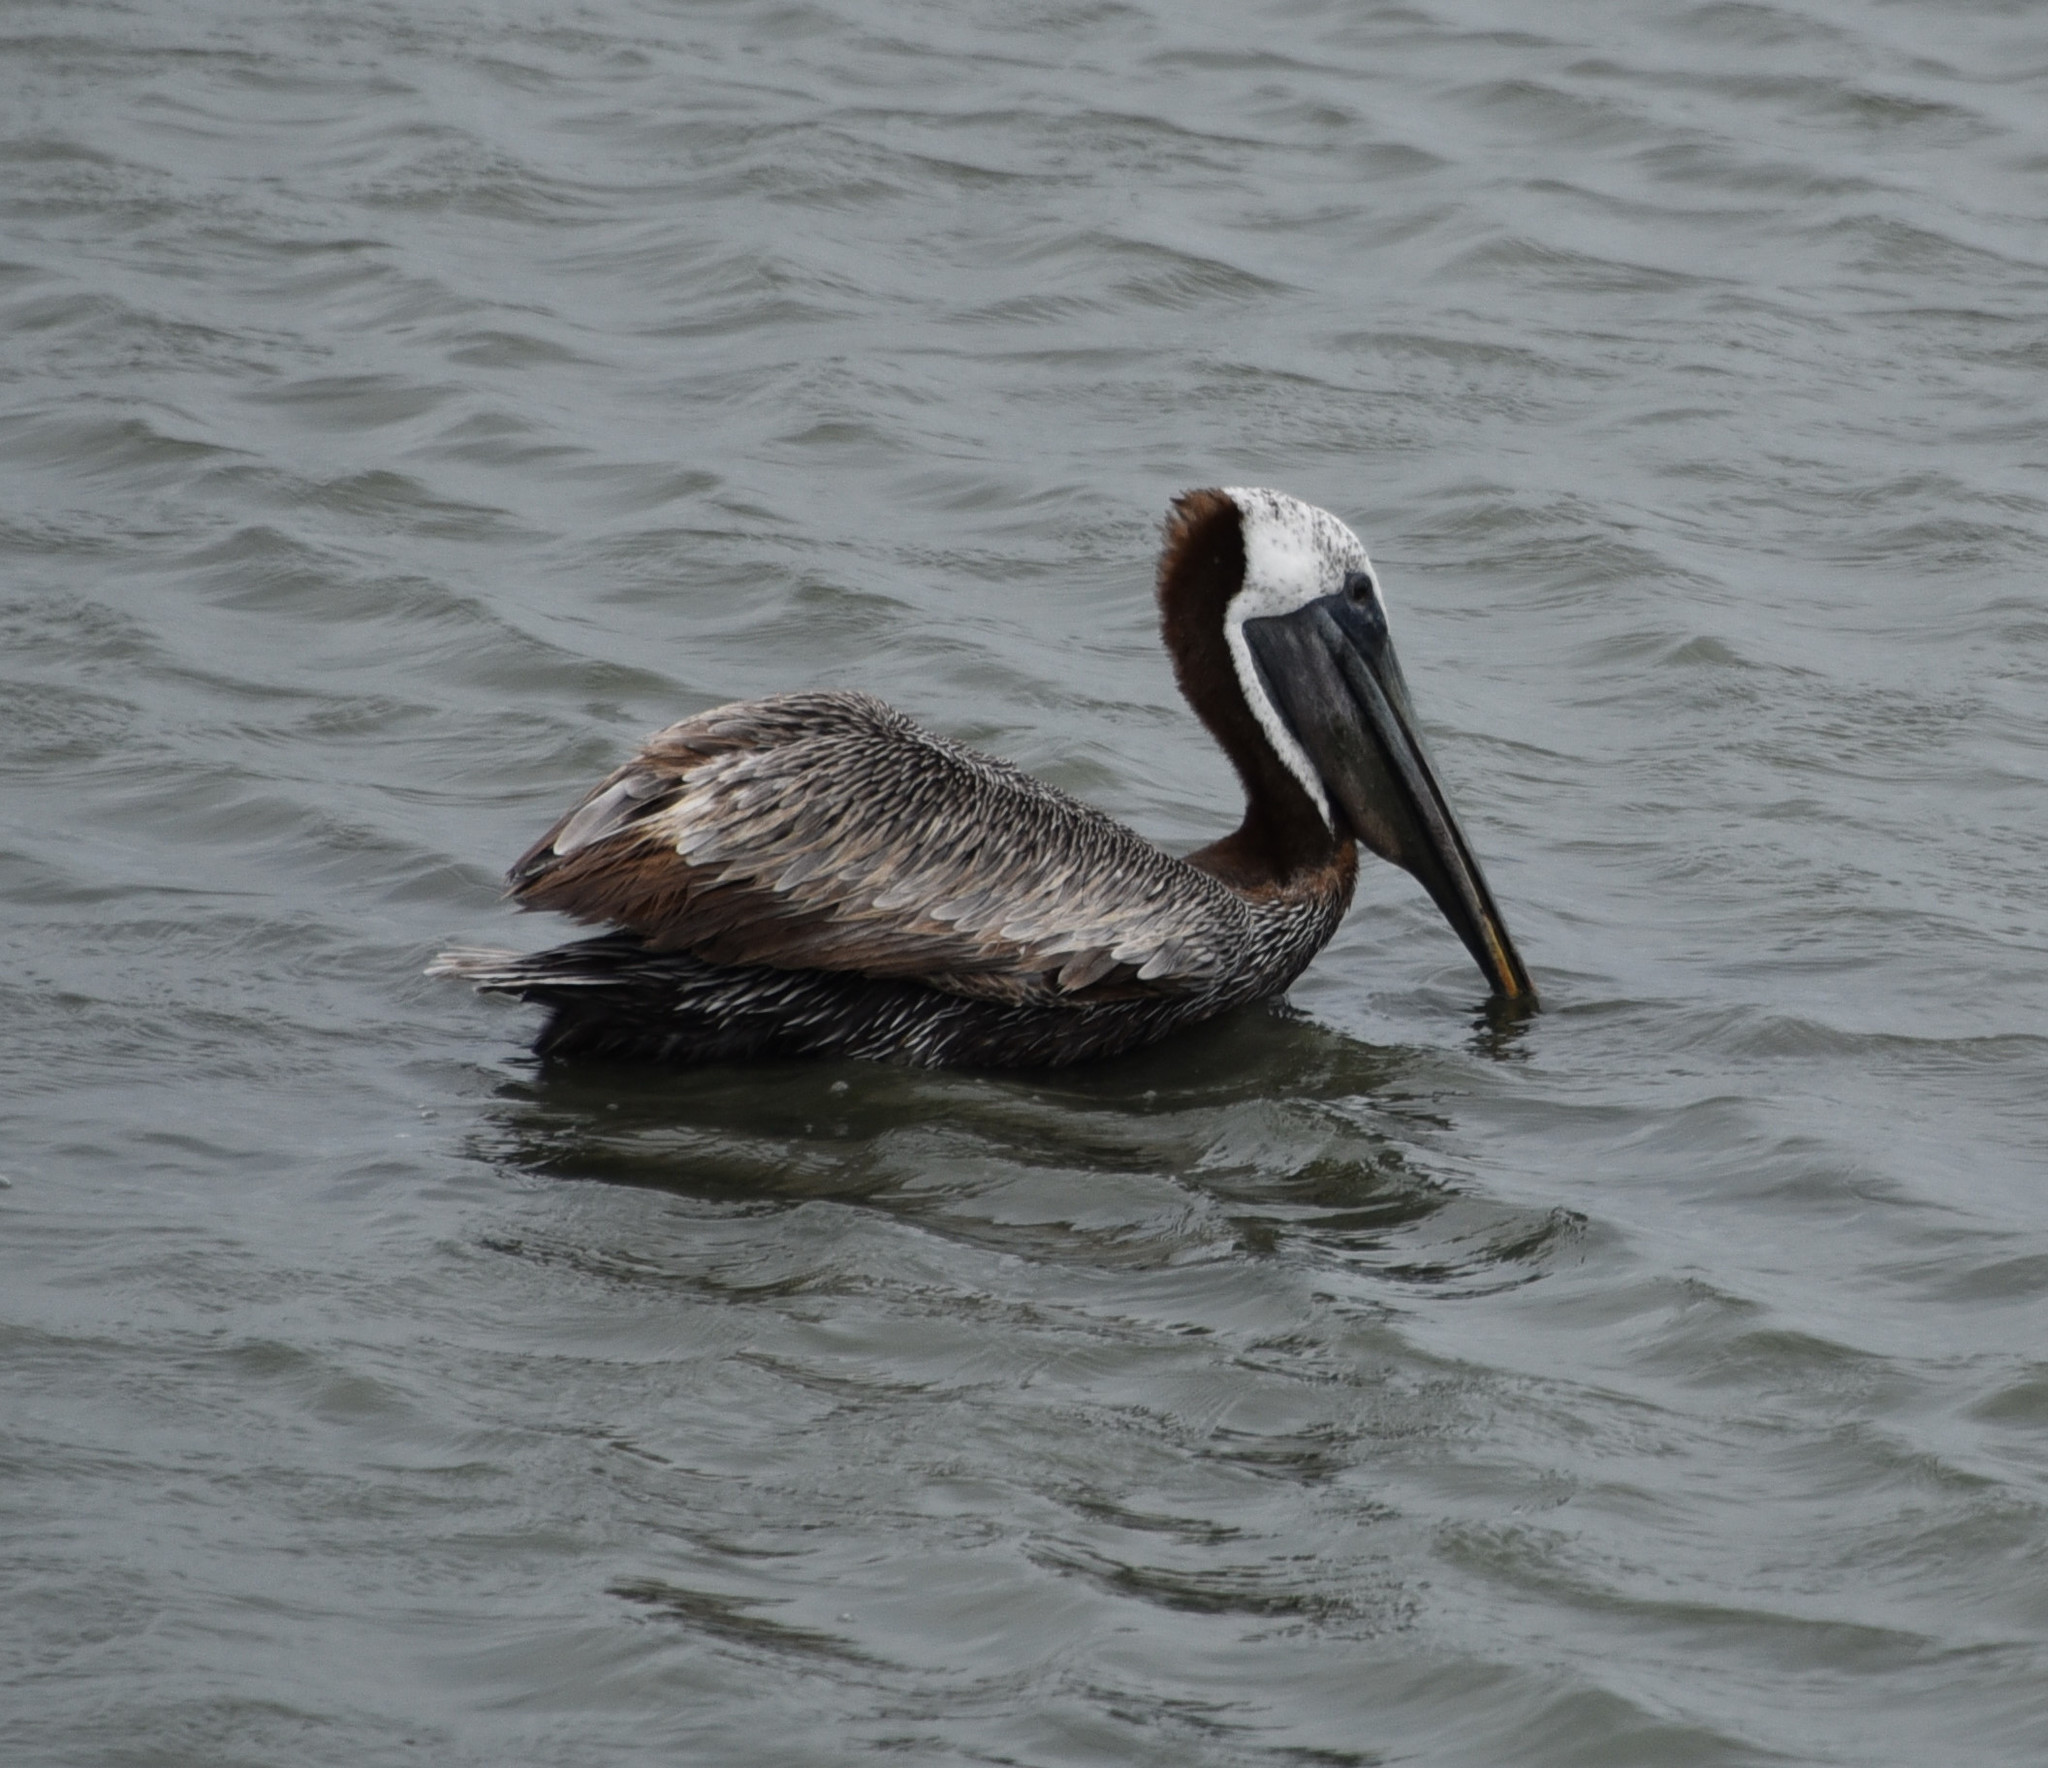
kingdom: Animalia
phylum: Chordata
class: Aves
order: Pelecaniformes
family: Pelecanidae
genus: Pelecanus
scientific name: Pelecanus occidentalis
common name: Brown pelican
